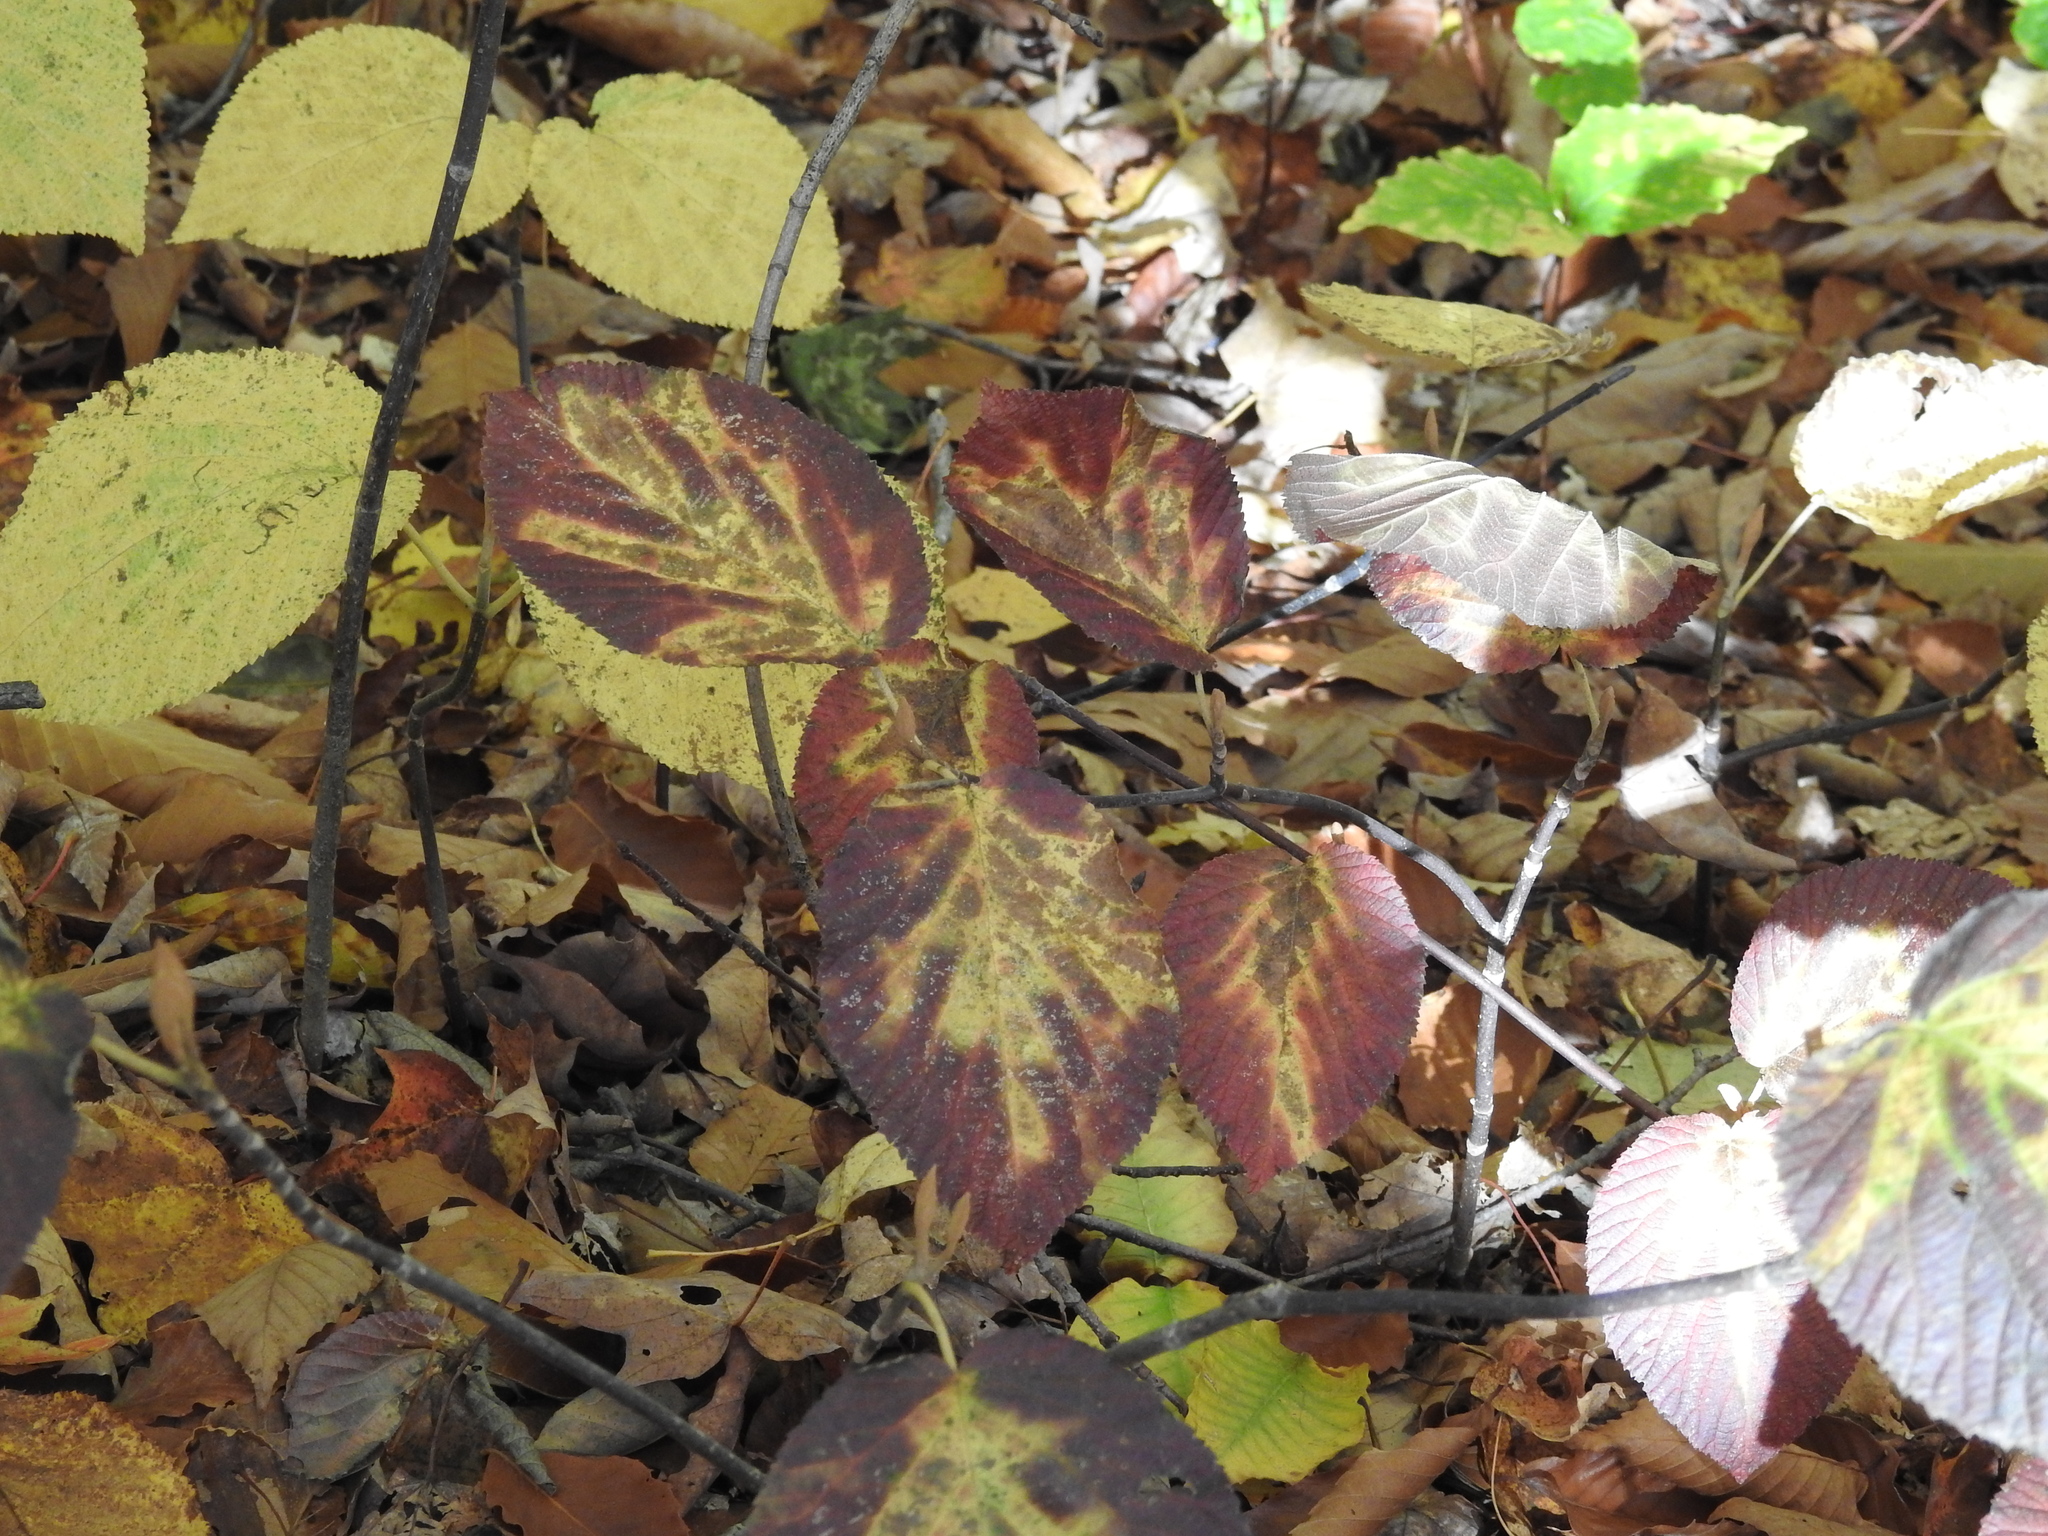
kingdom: Plantae
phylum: Tracheophyta
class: Magnoliopsida
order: Dipsacales
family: Viburnaceae
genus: Viburnum
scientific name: Viburnum lantanoides
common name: Hobblebush
